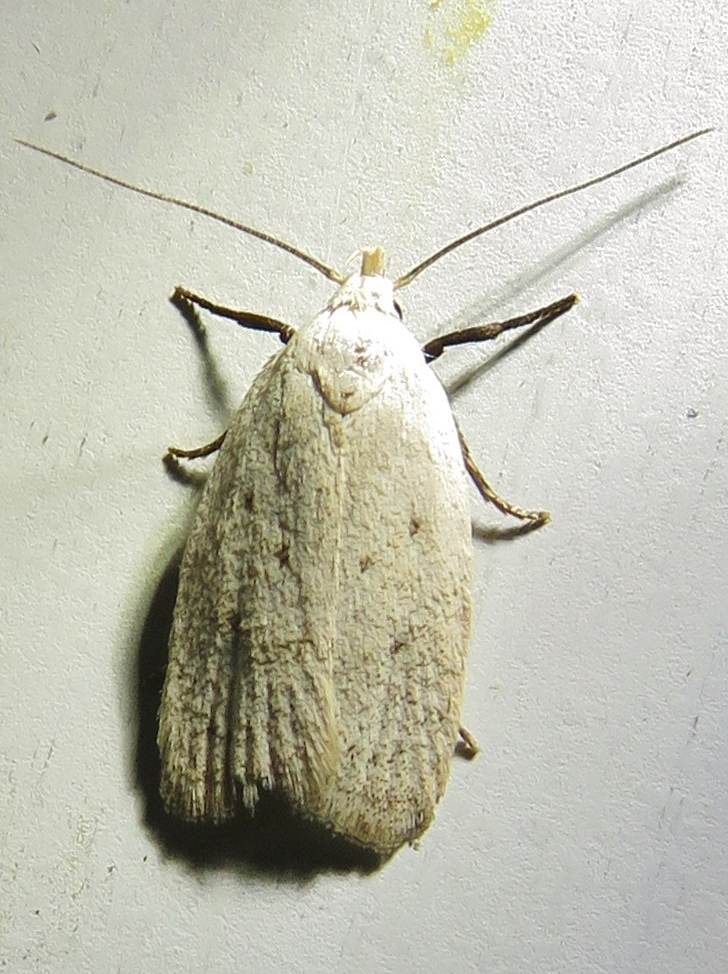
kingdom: Animalia
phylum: Arthropoda
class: Insecta
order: Lepidoptera
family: Oecophoridae
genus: Inga
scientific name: Inga cretacea
